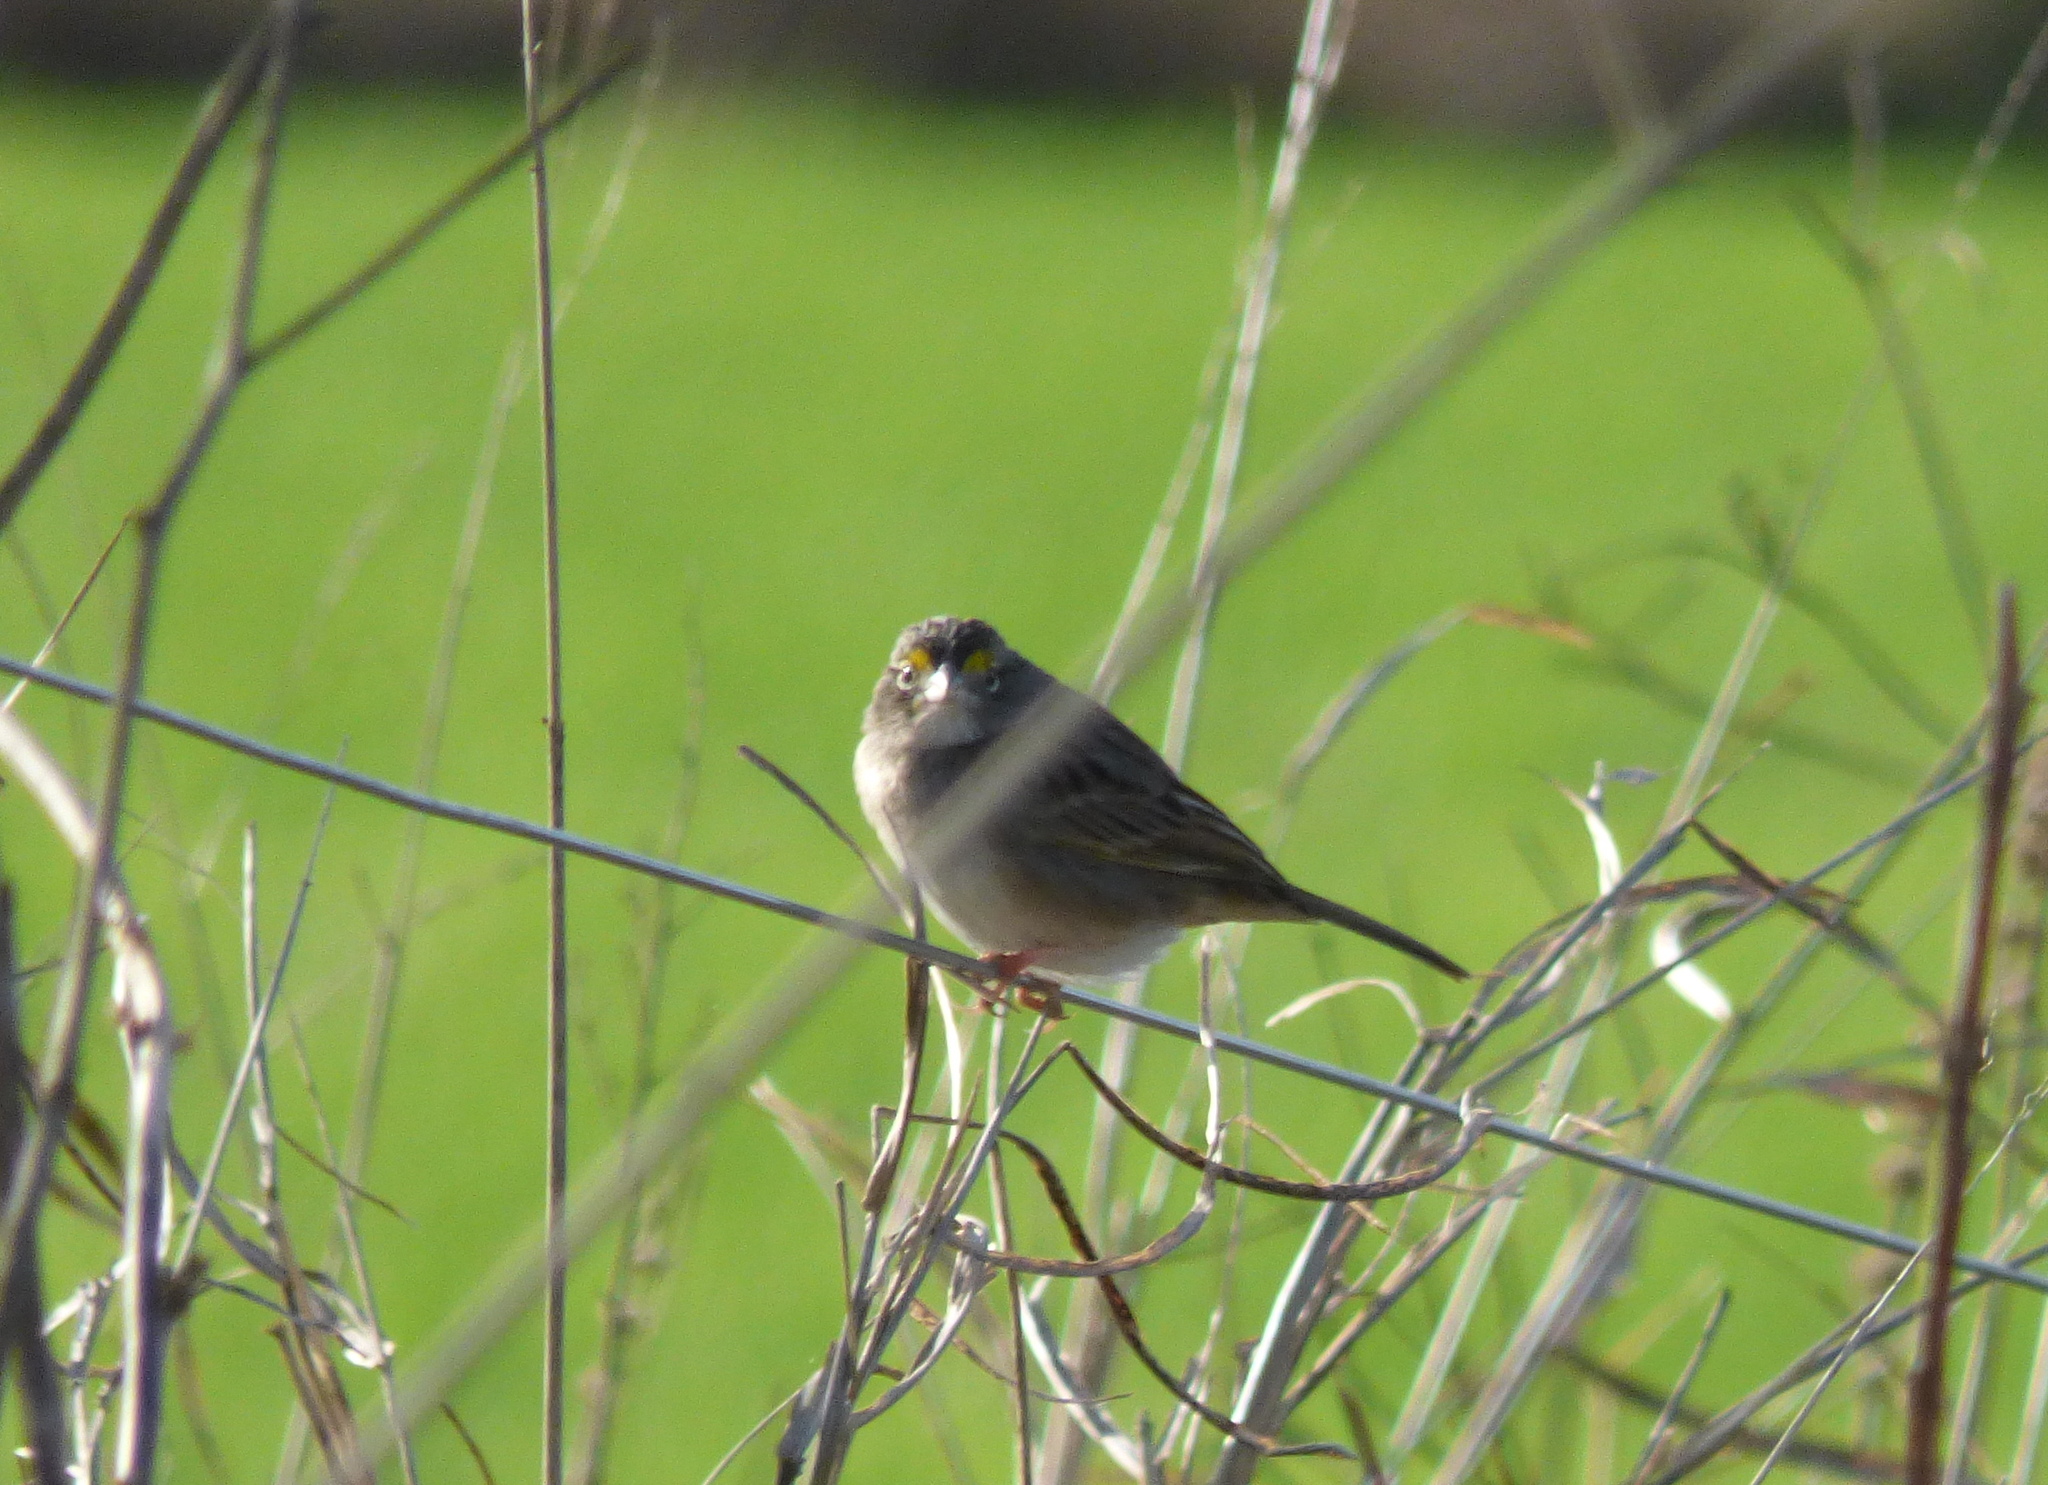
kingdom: Animalia
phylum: Chordata
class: Aves
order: Passeriformes
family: Passerellidae
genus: Ammodramus
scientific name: Ammodramus humeralis
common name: Grassland sparrow
